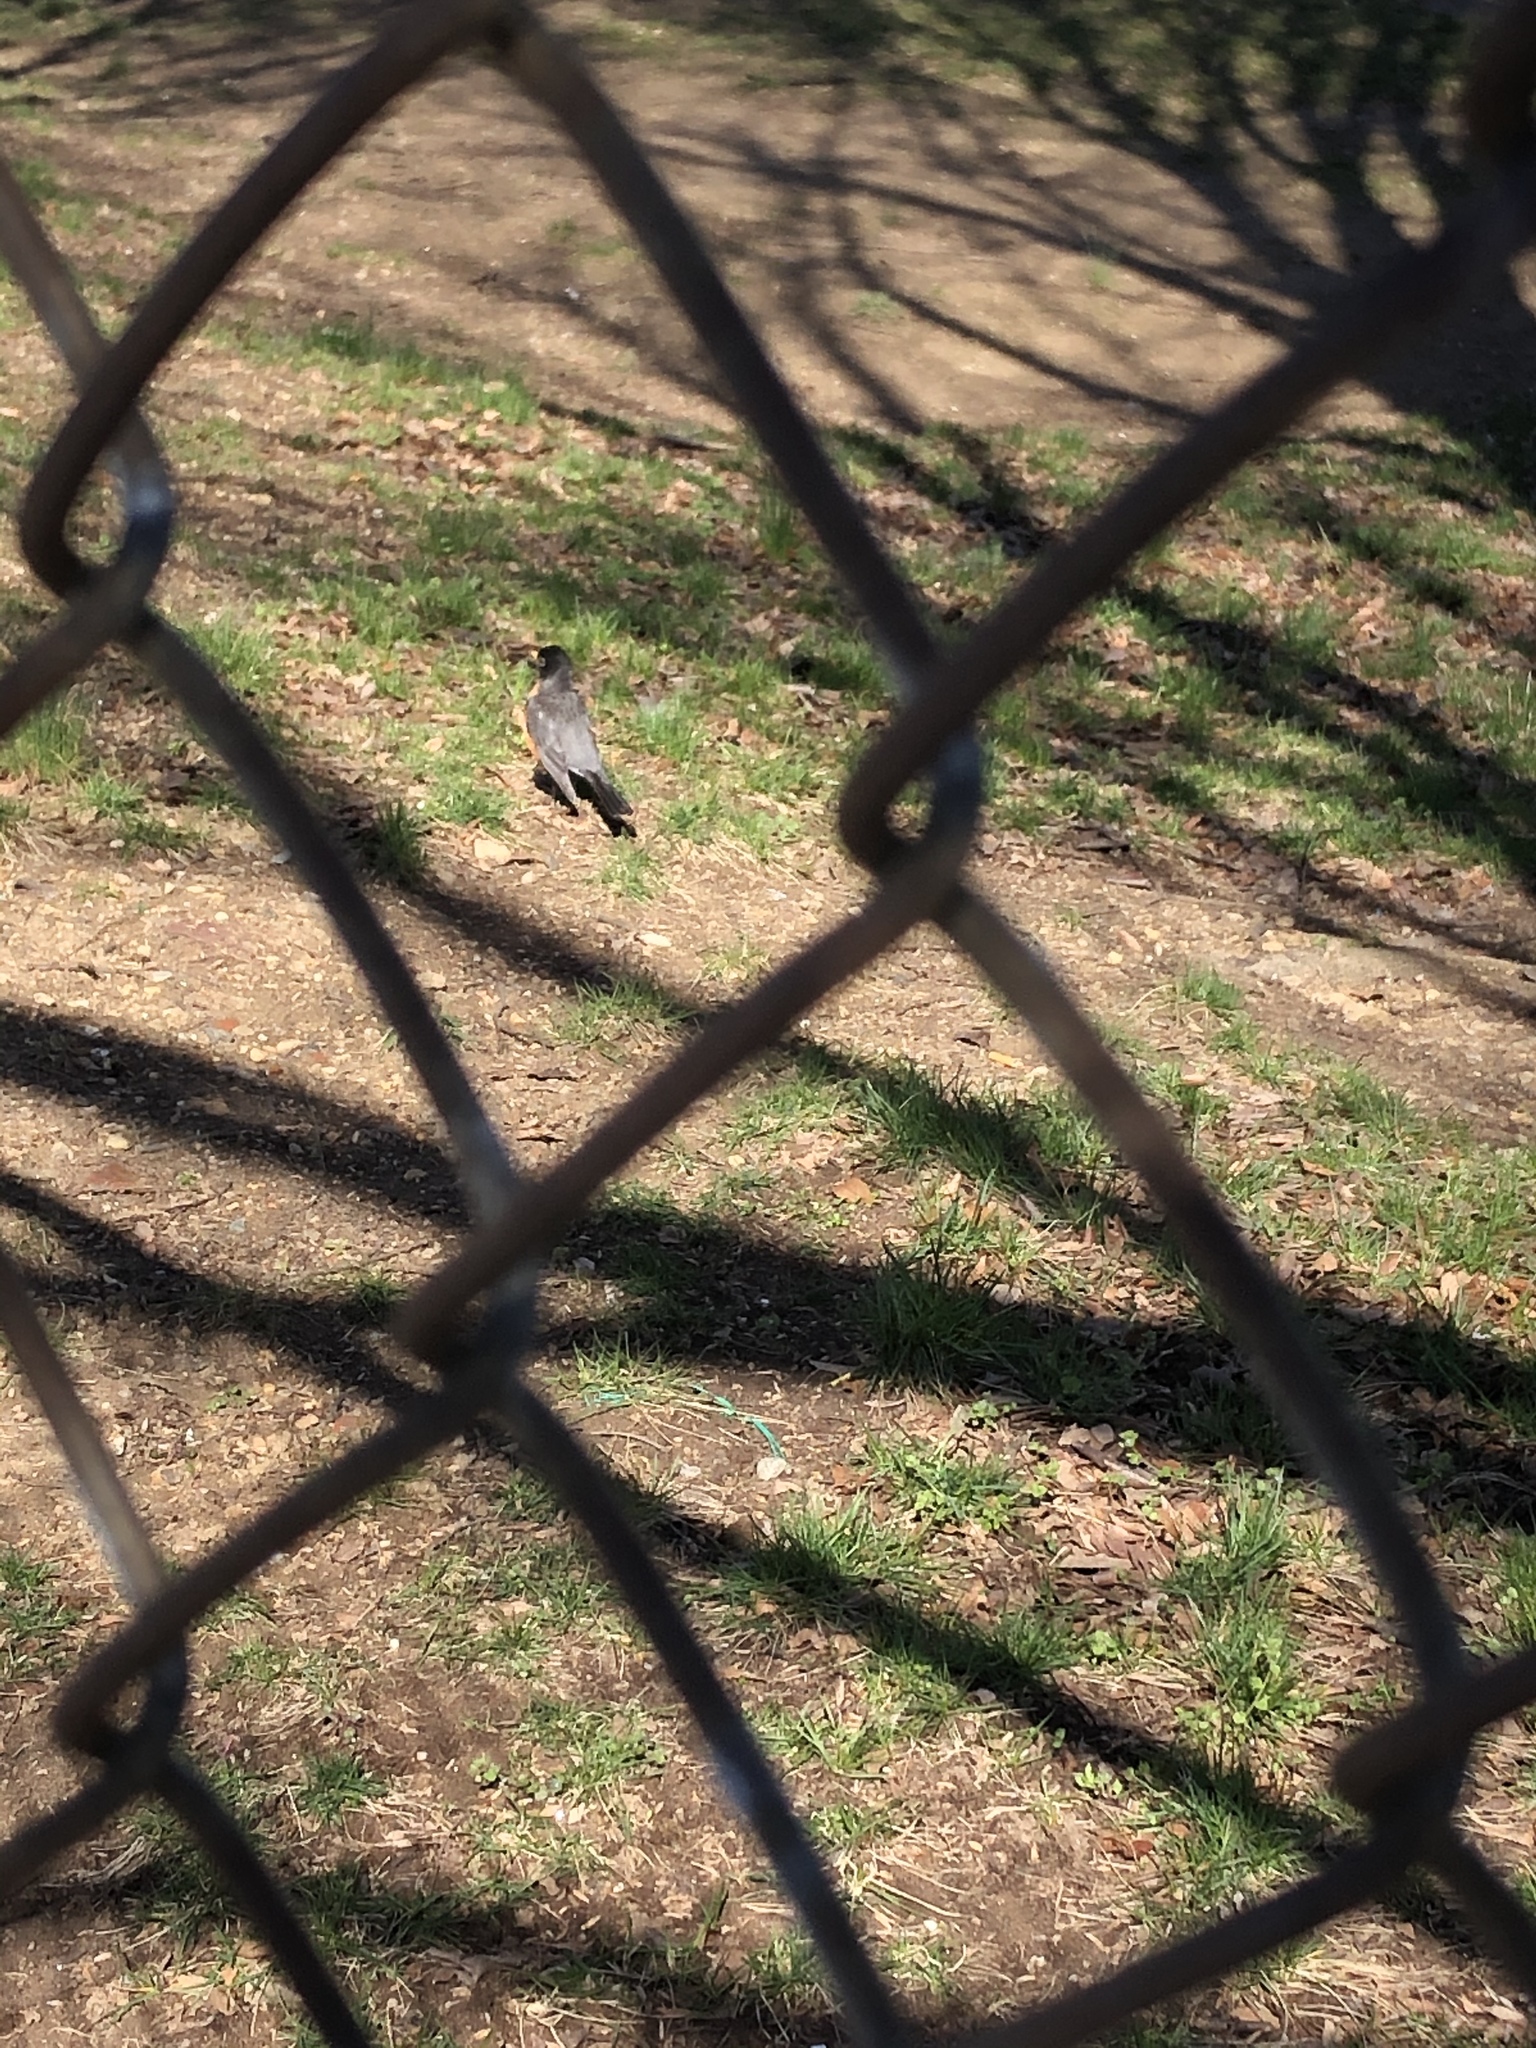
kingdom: Animalia
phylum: Chordata
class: Aves
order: Passeriformes
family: Turdidae
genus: Turdus
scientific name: Turdus migratorius
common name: American robin
